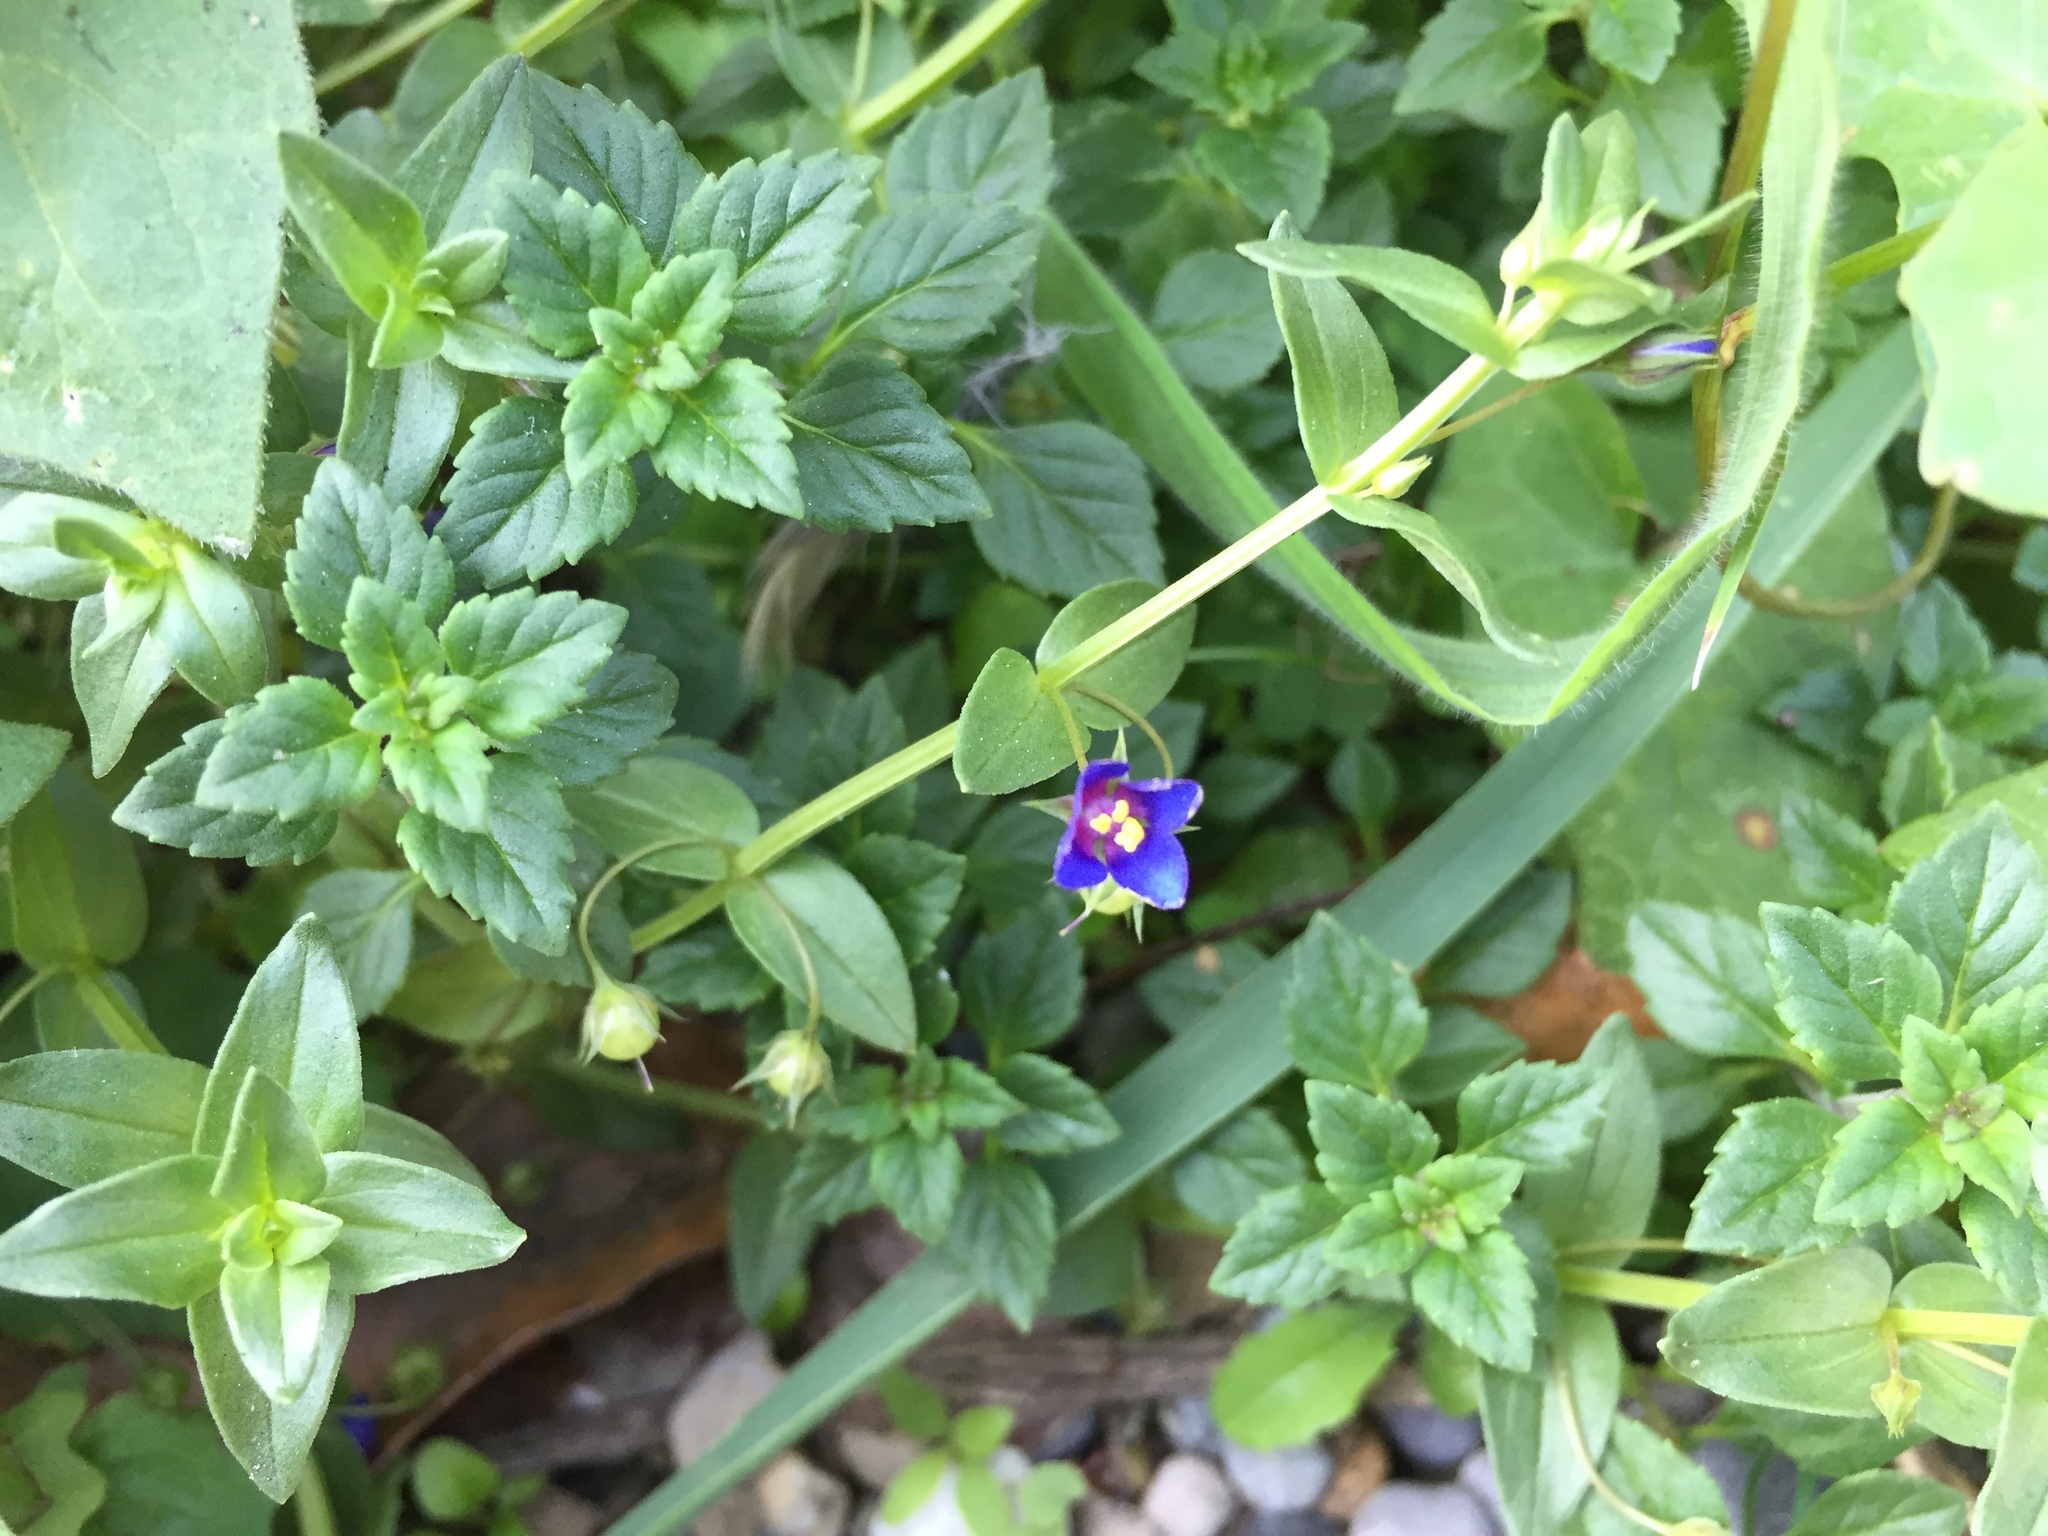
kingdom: Plantae
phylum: Tracheophyta
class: Magnoliopsida
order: Ericales
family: Primulaceae
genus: Lysimachia
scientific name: Lysimachia loeflingii
